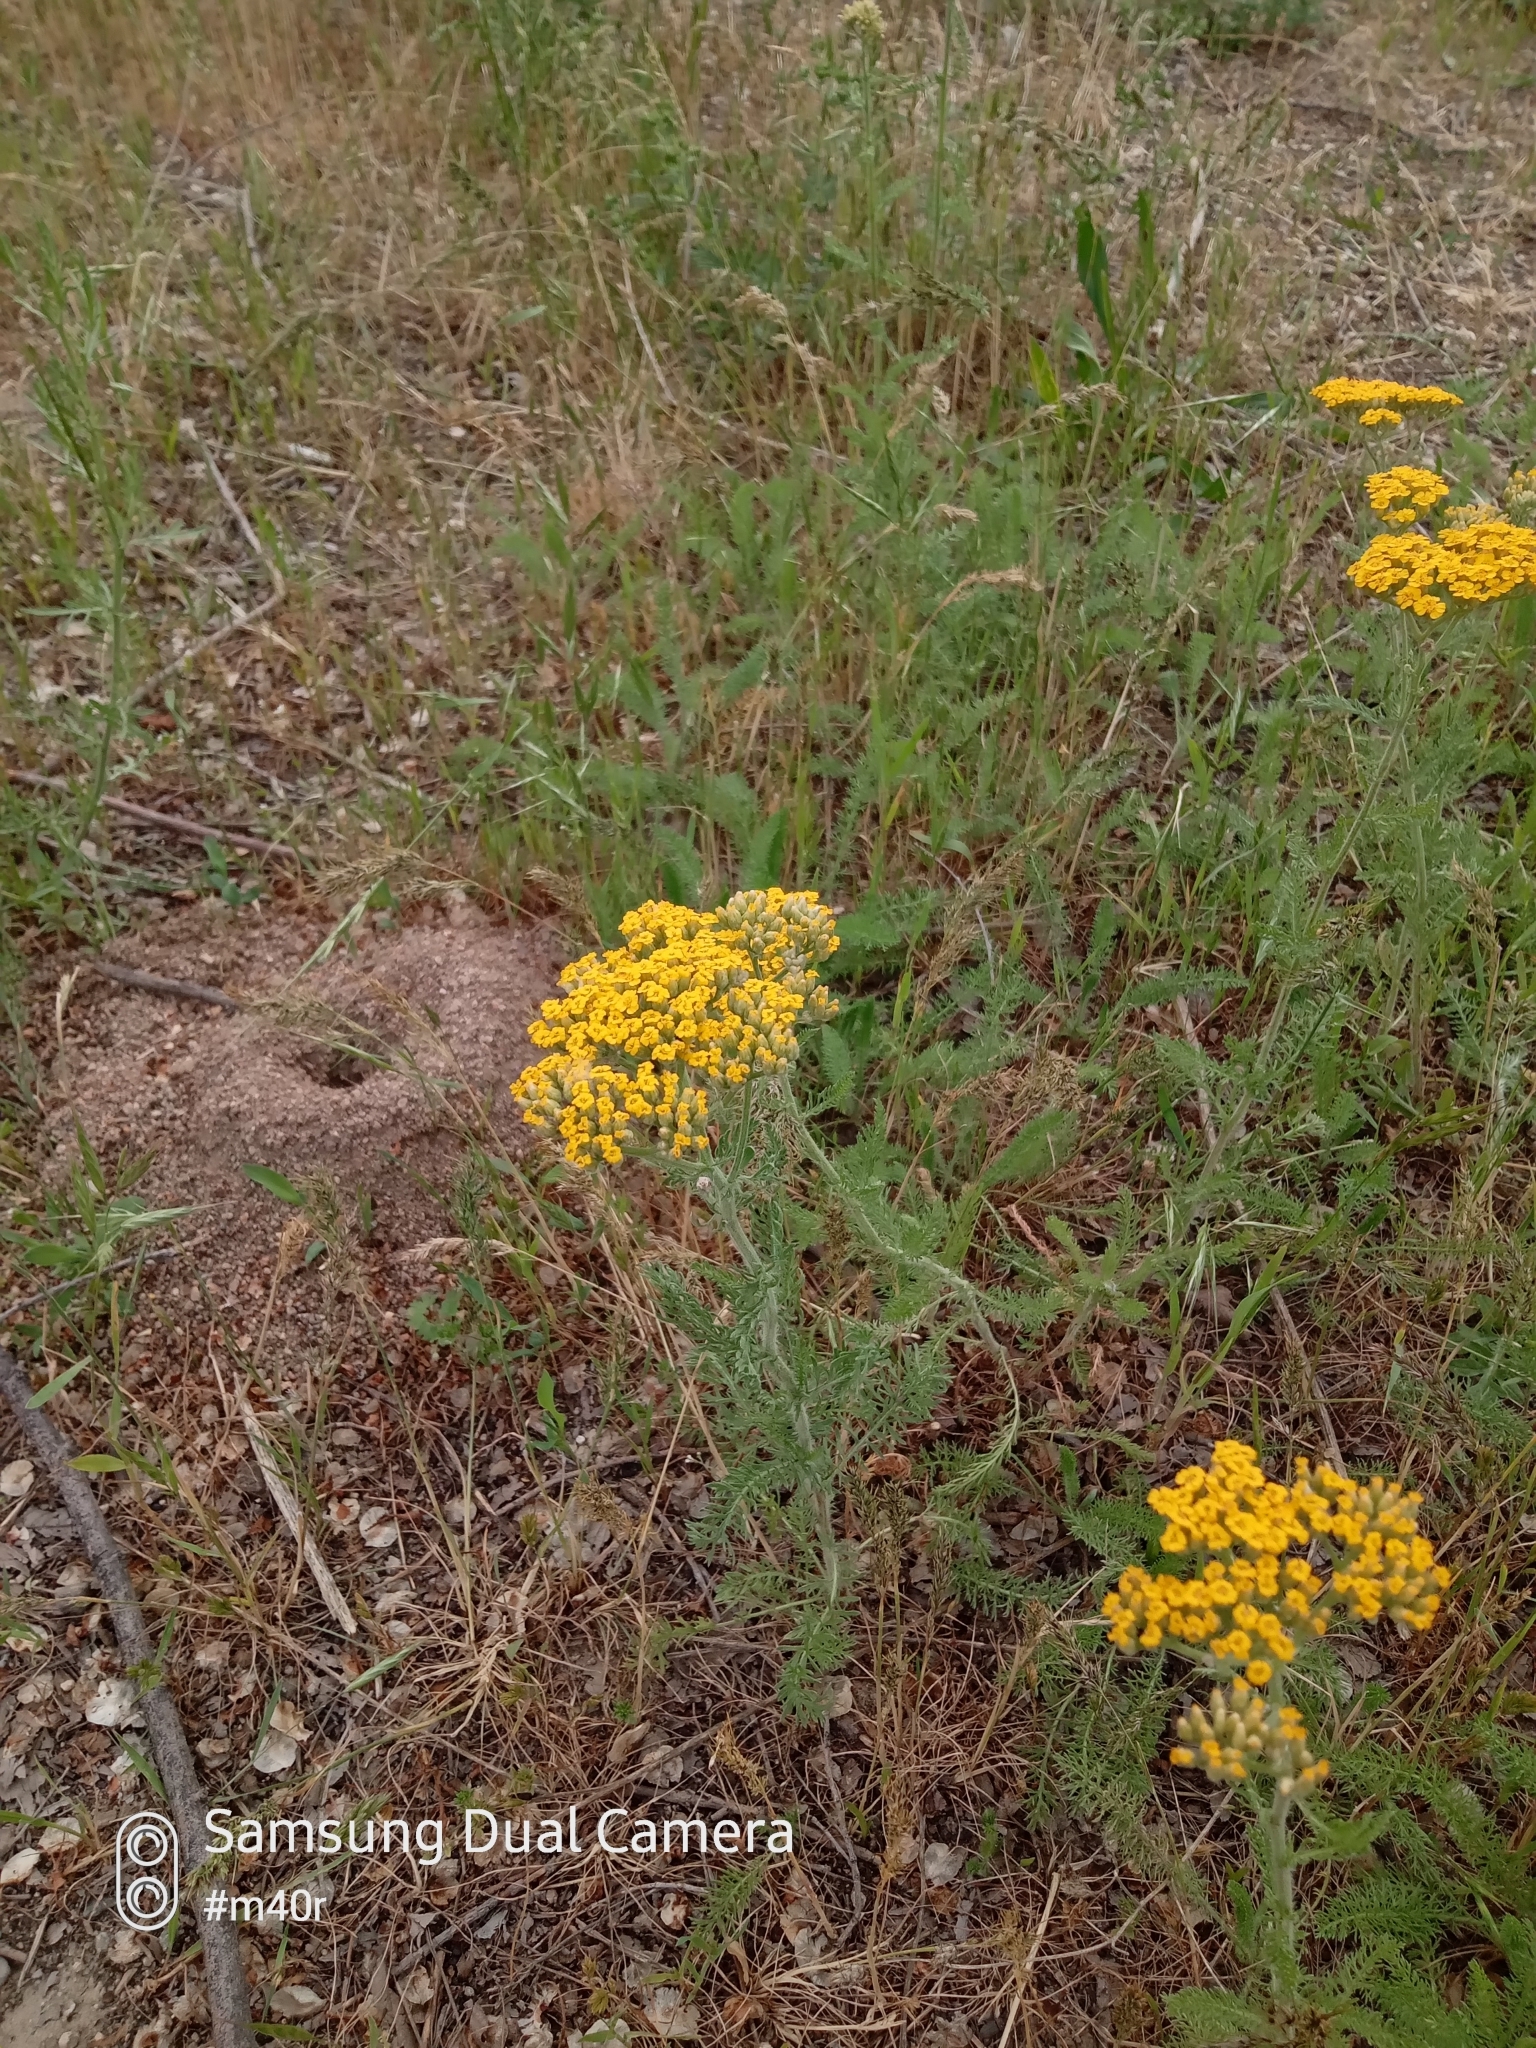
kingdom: Plantae
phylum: Tracheophyta
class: Magnoliopsida
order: Asterales
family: Asteraceae
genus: Achillea
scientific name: Achillea arabica
